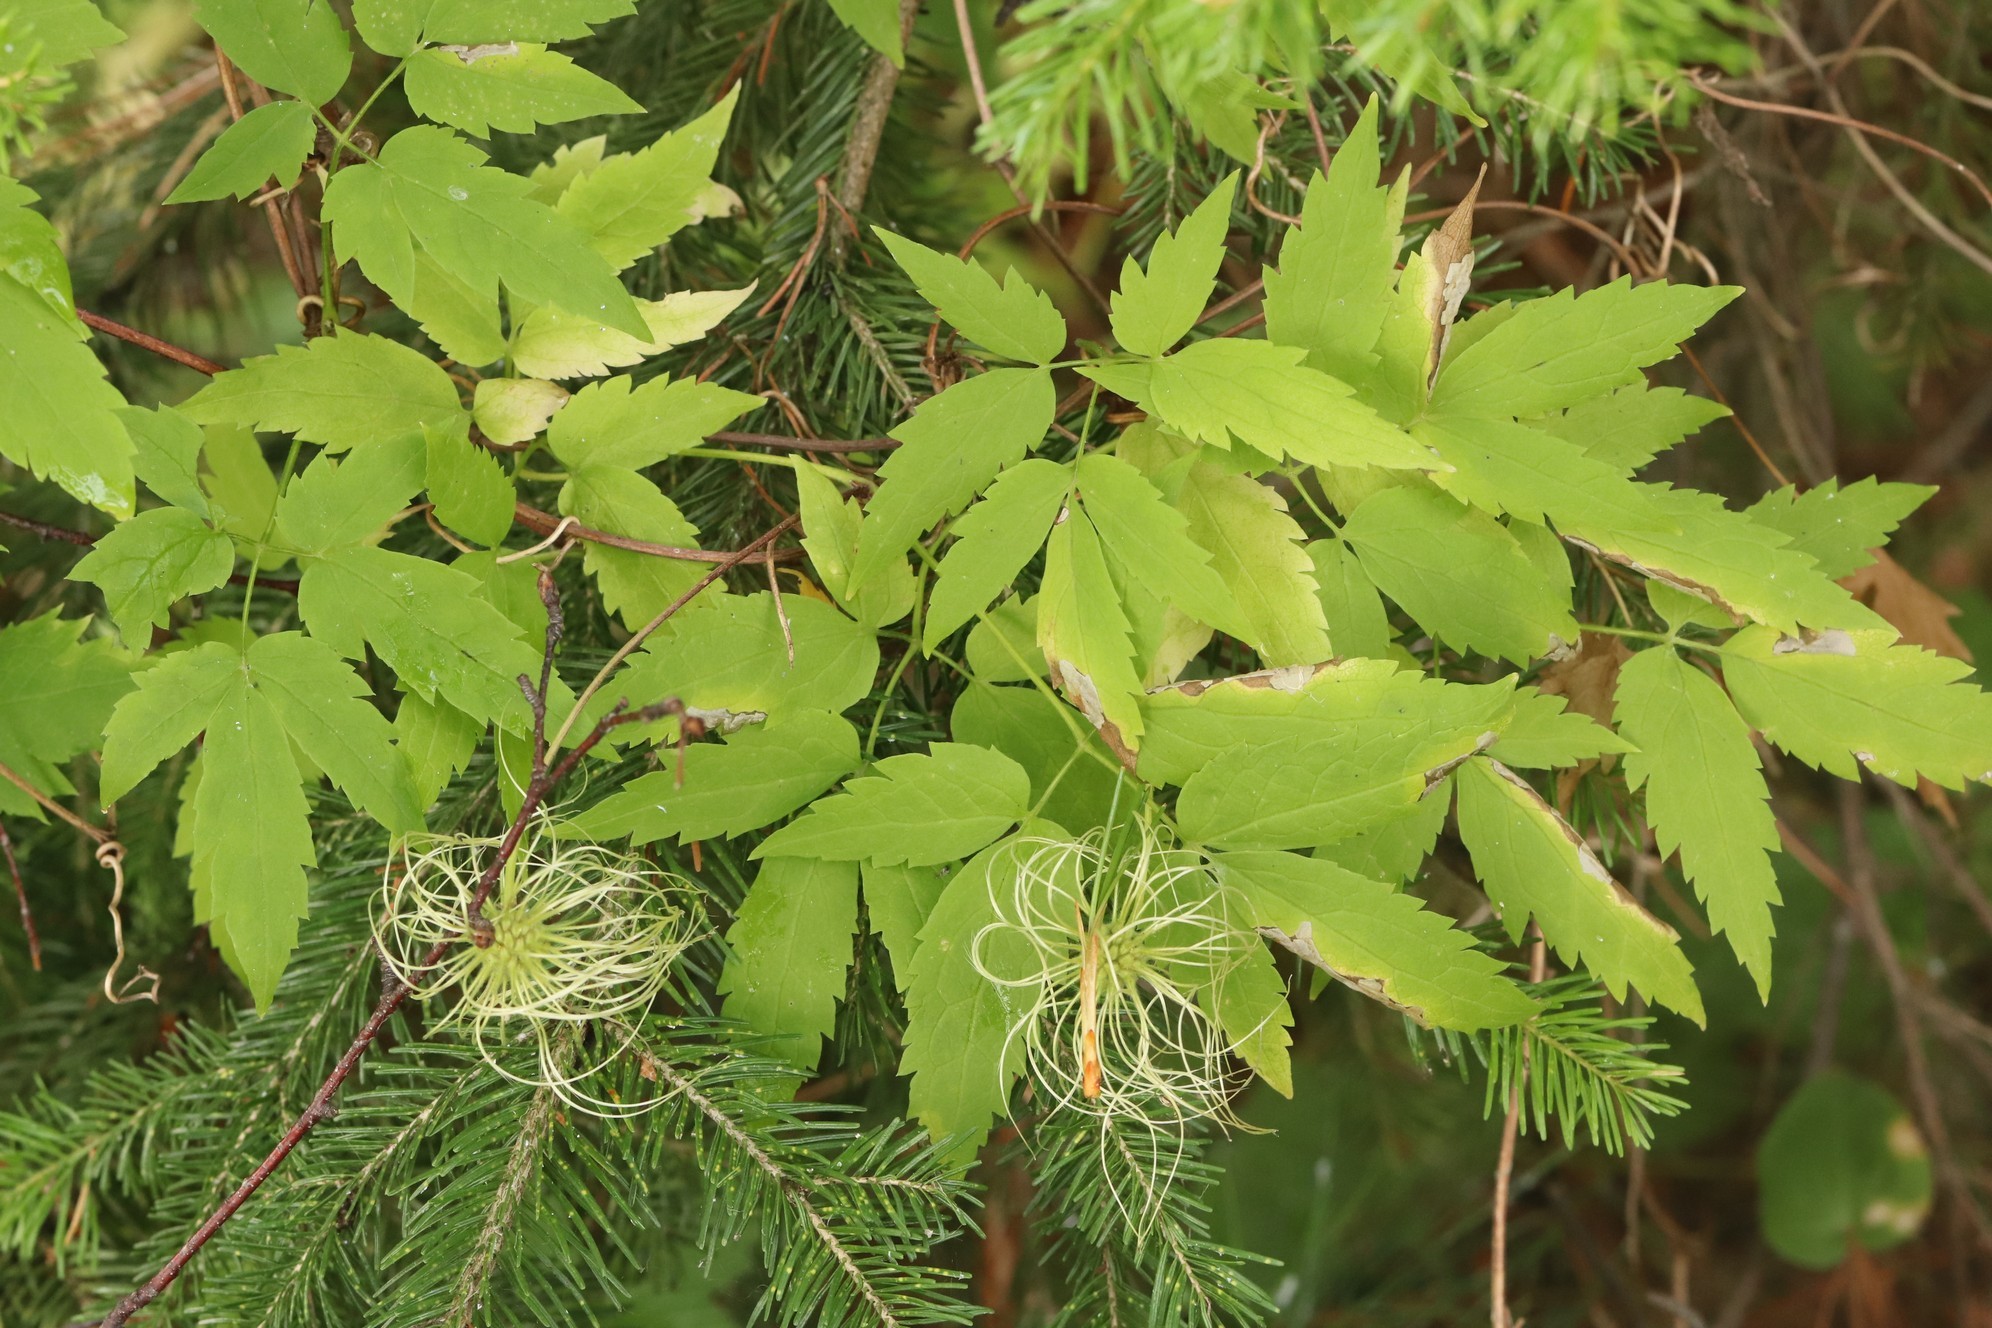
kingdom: Plantae
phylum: Tracheophyta
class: Magnoliopsida
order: Ranunculales
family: Ranunculaceae
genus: Clematis
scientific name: Clematis sibirica
